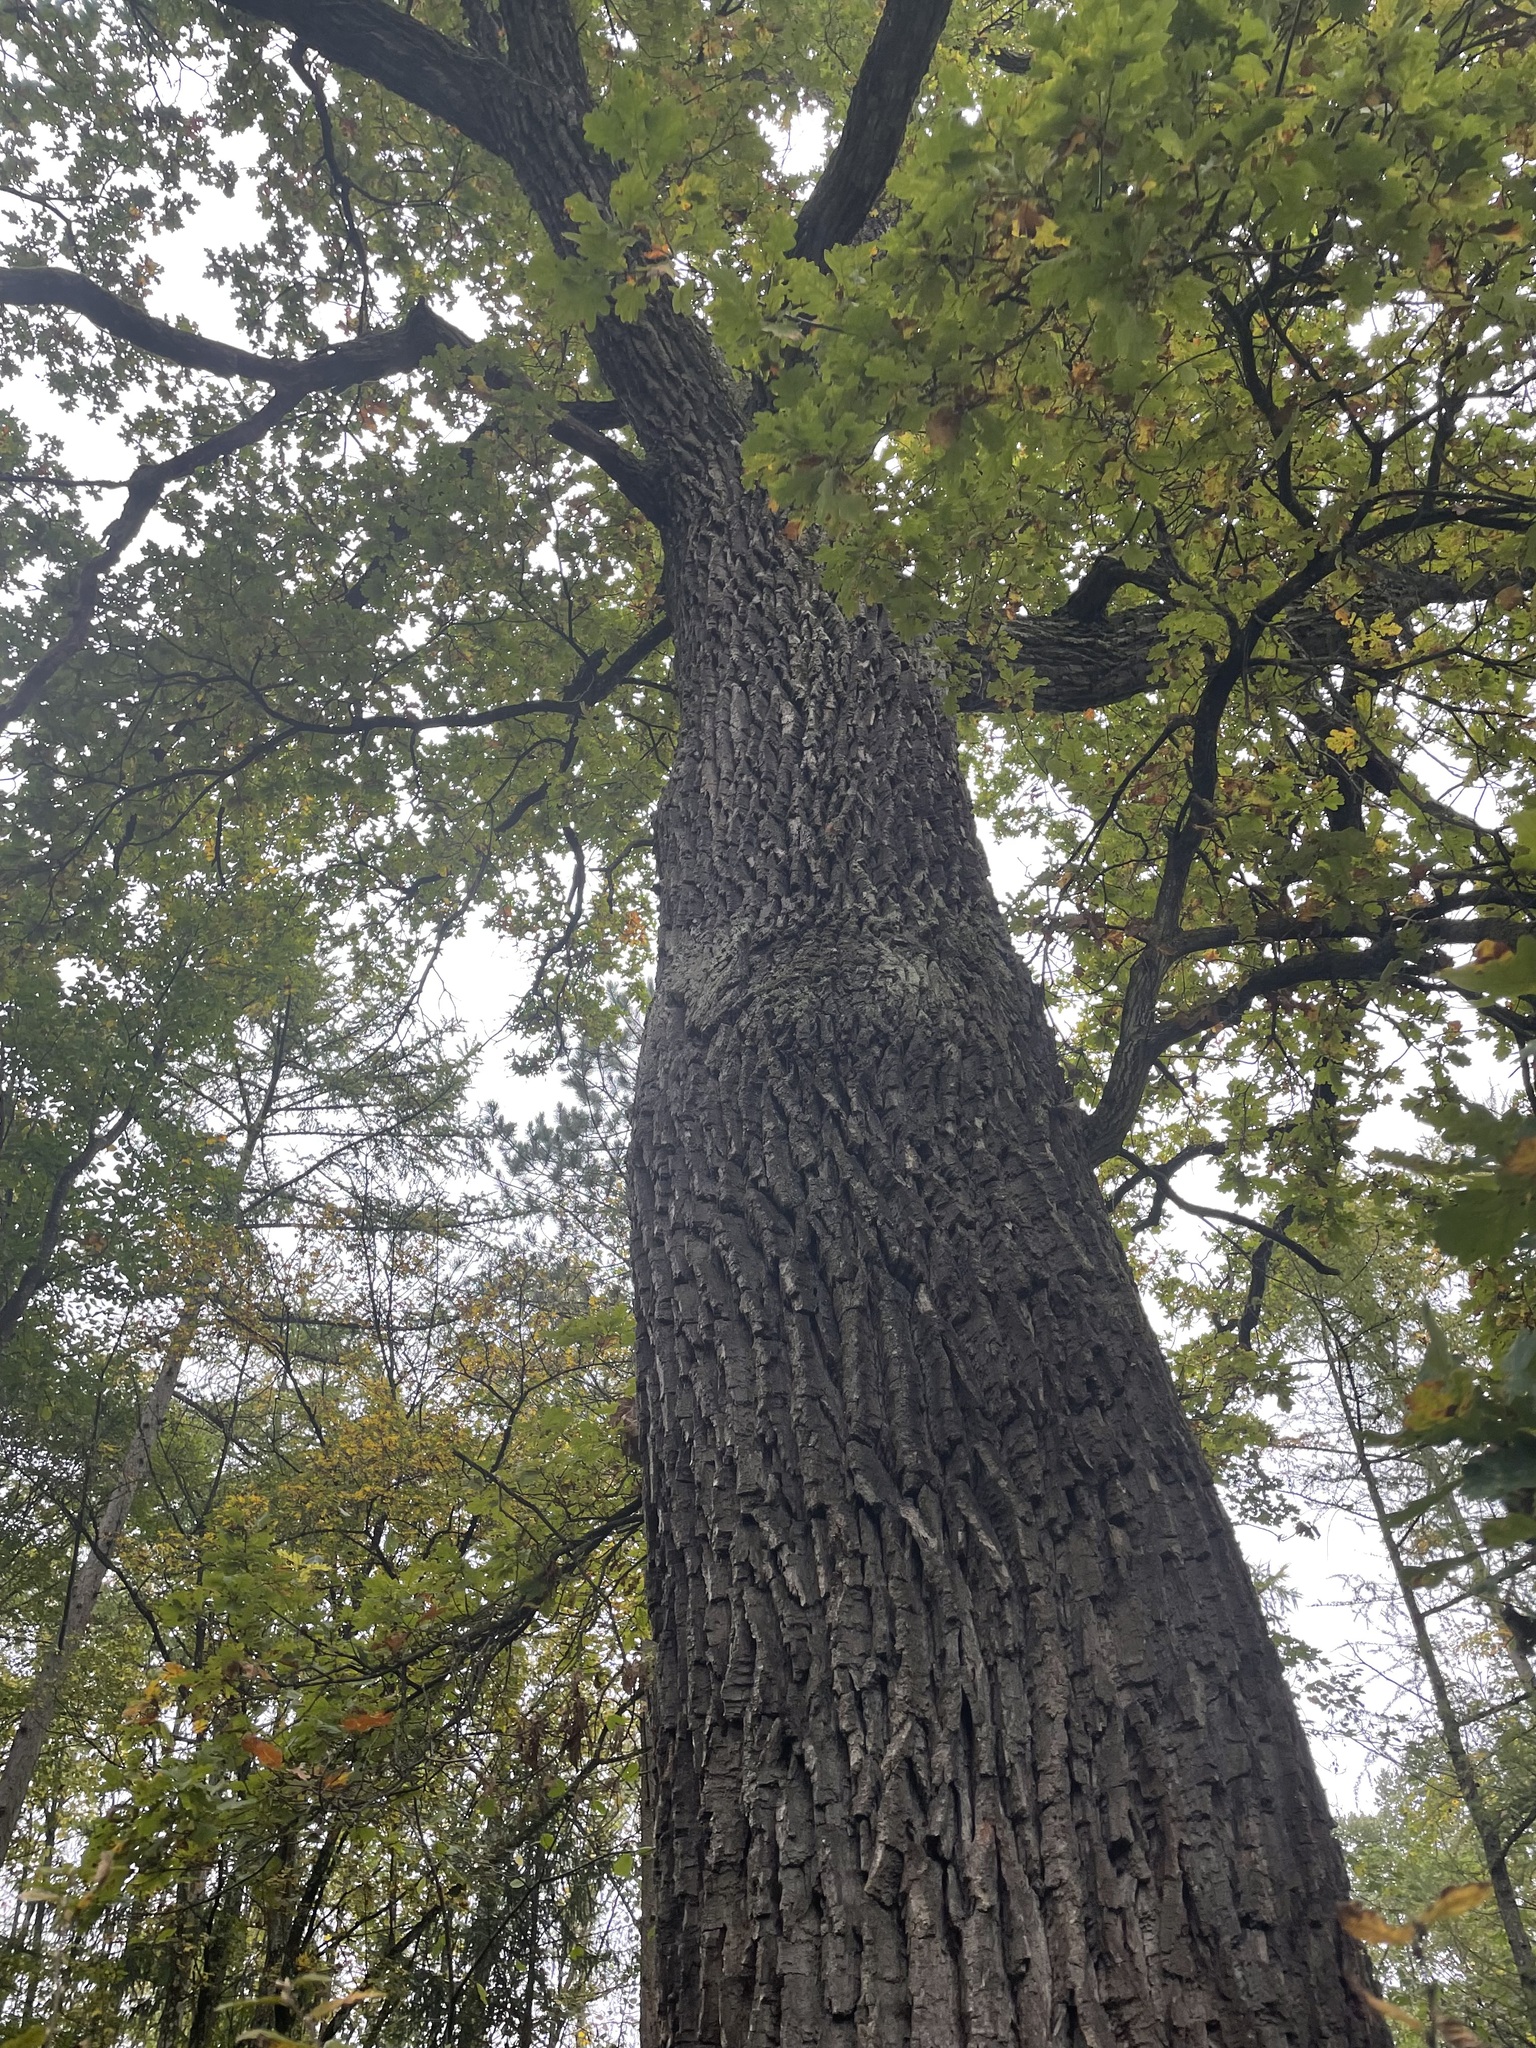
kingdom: Plantae
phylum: Tracheophyta
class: Magnoliopsida
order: Fagales
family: Fagaceae
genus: Quercus
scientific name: Quercus robur
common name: Pedunculate oak
